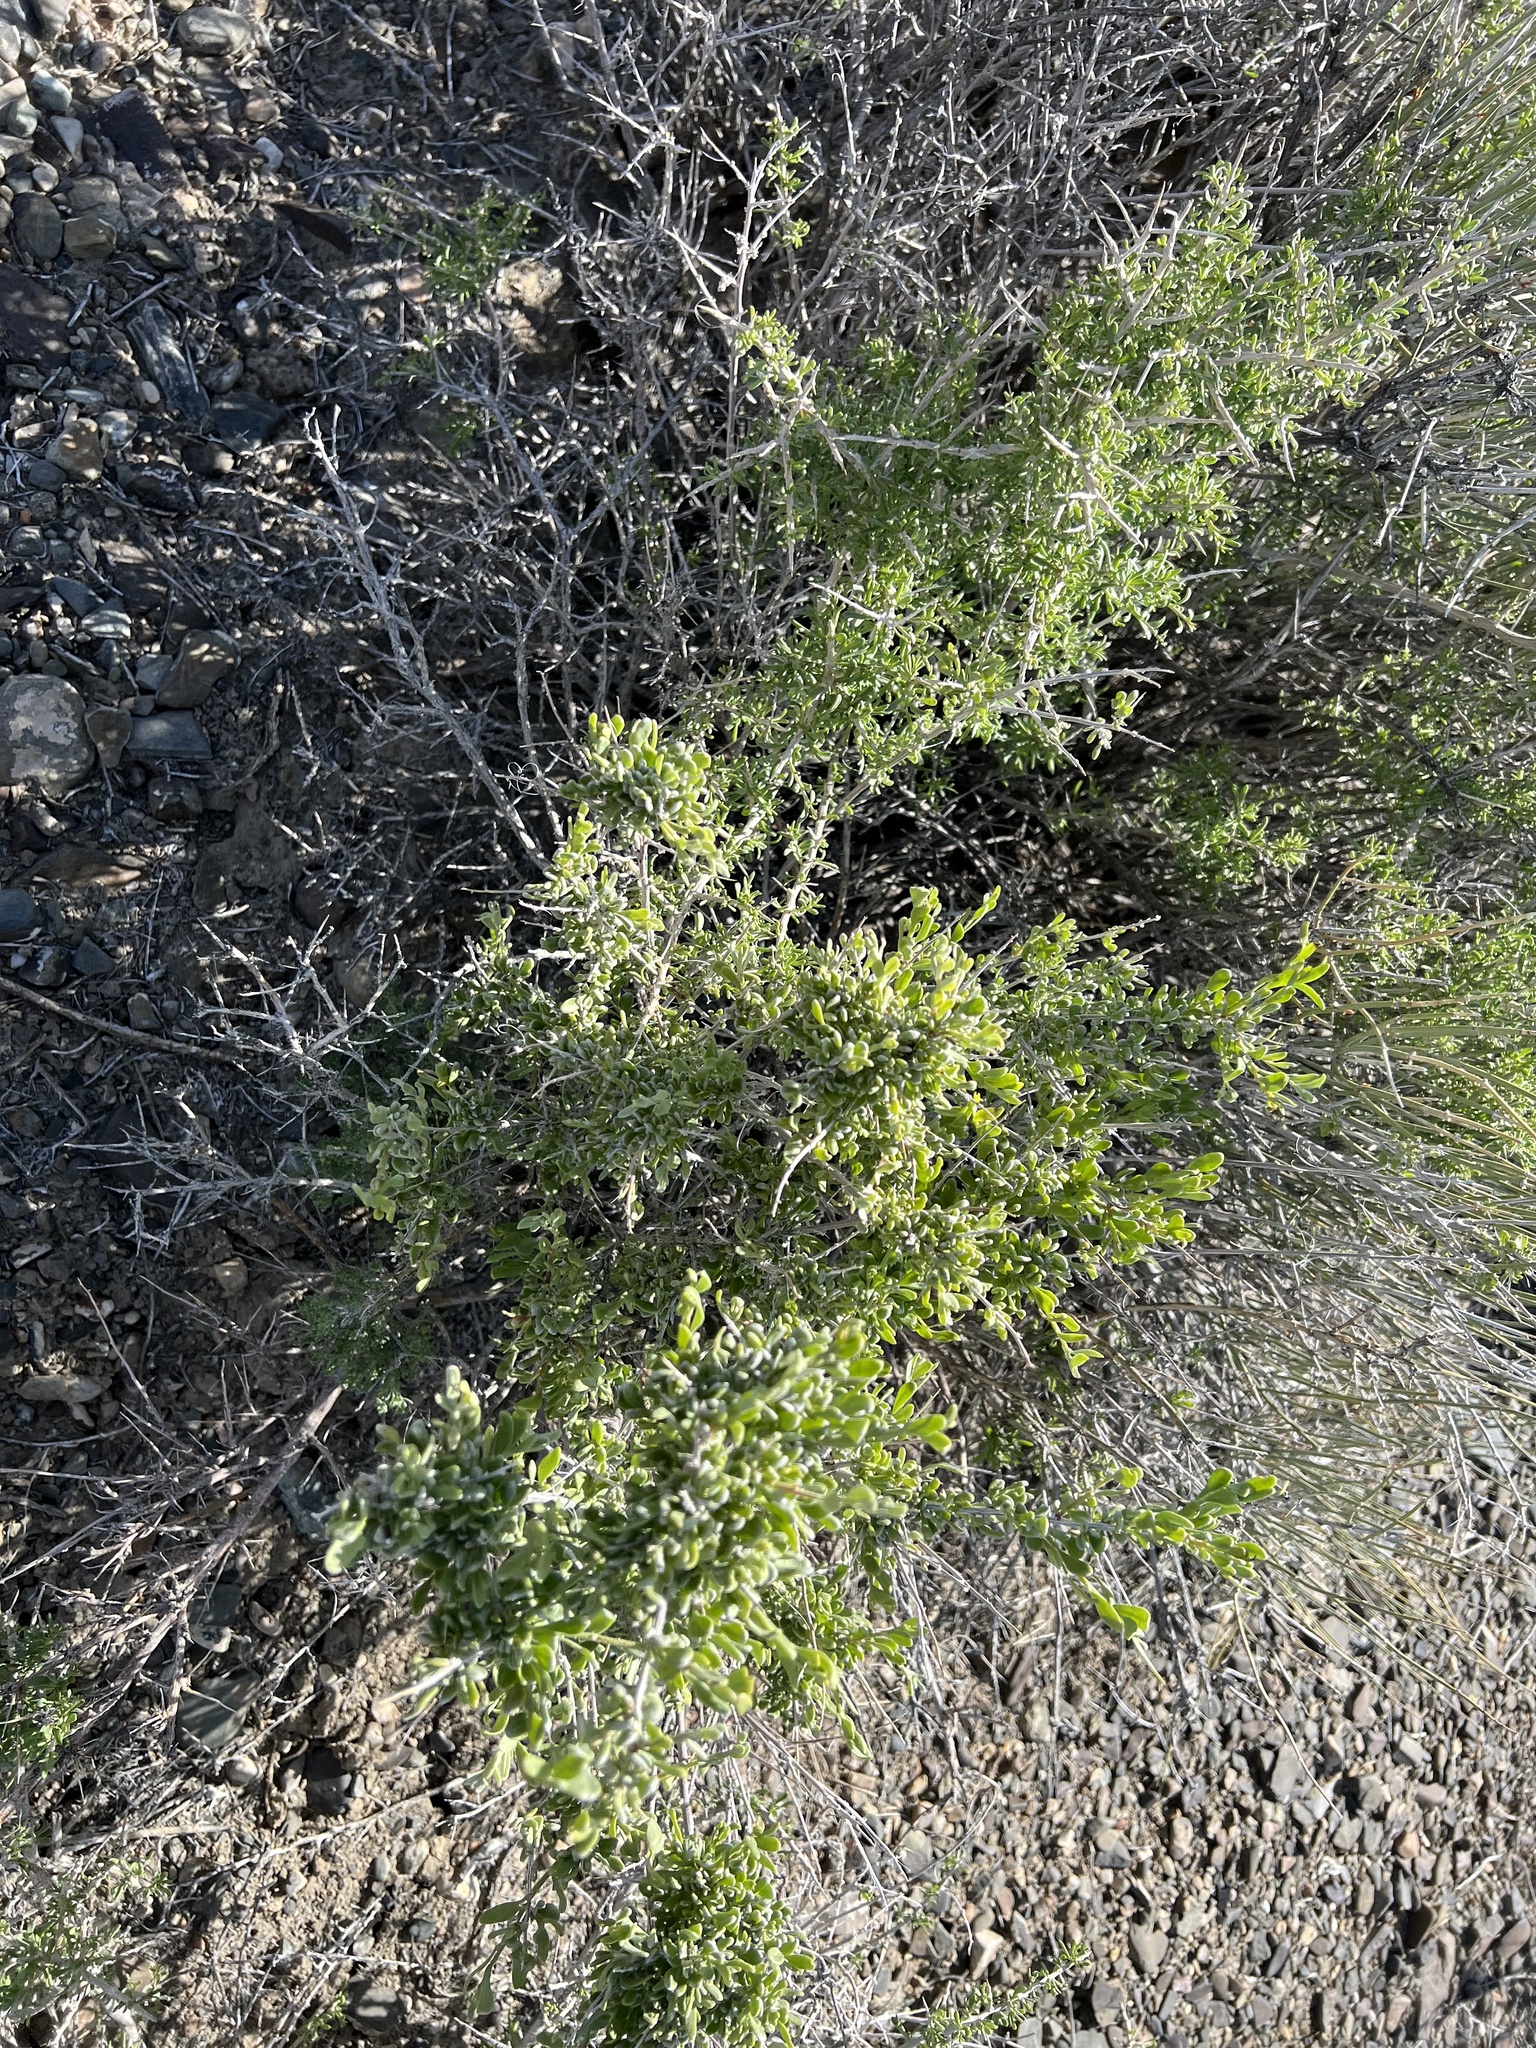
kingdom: Plantae
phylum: Tracheophyta
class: Magnoliopsida
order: Caryophyllales
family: Amaranthaceae
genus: Grayia
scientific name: Grayia spinosa
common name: Spiny hopsage
